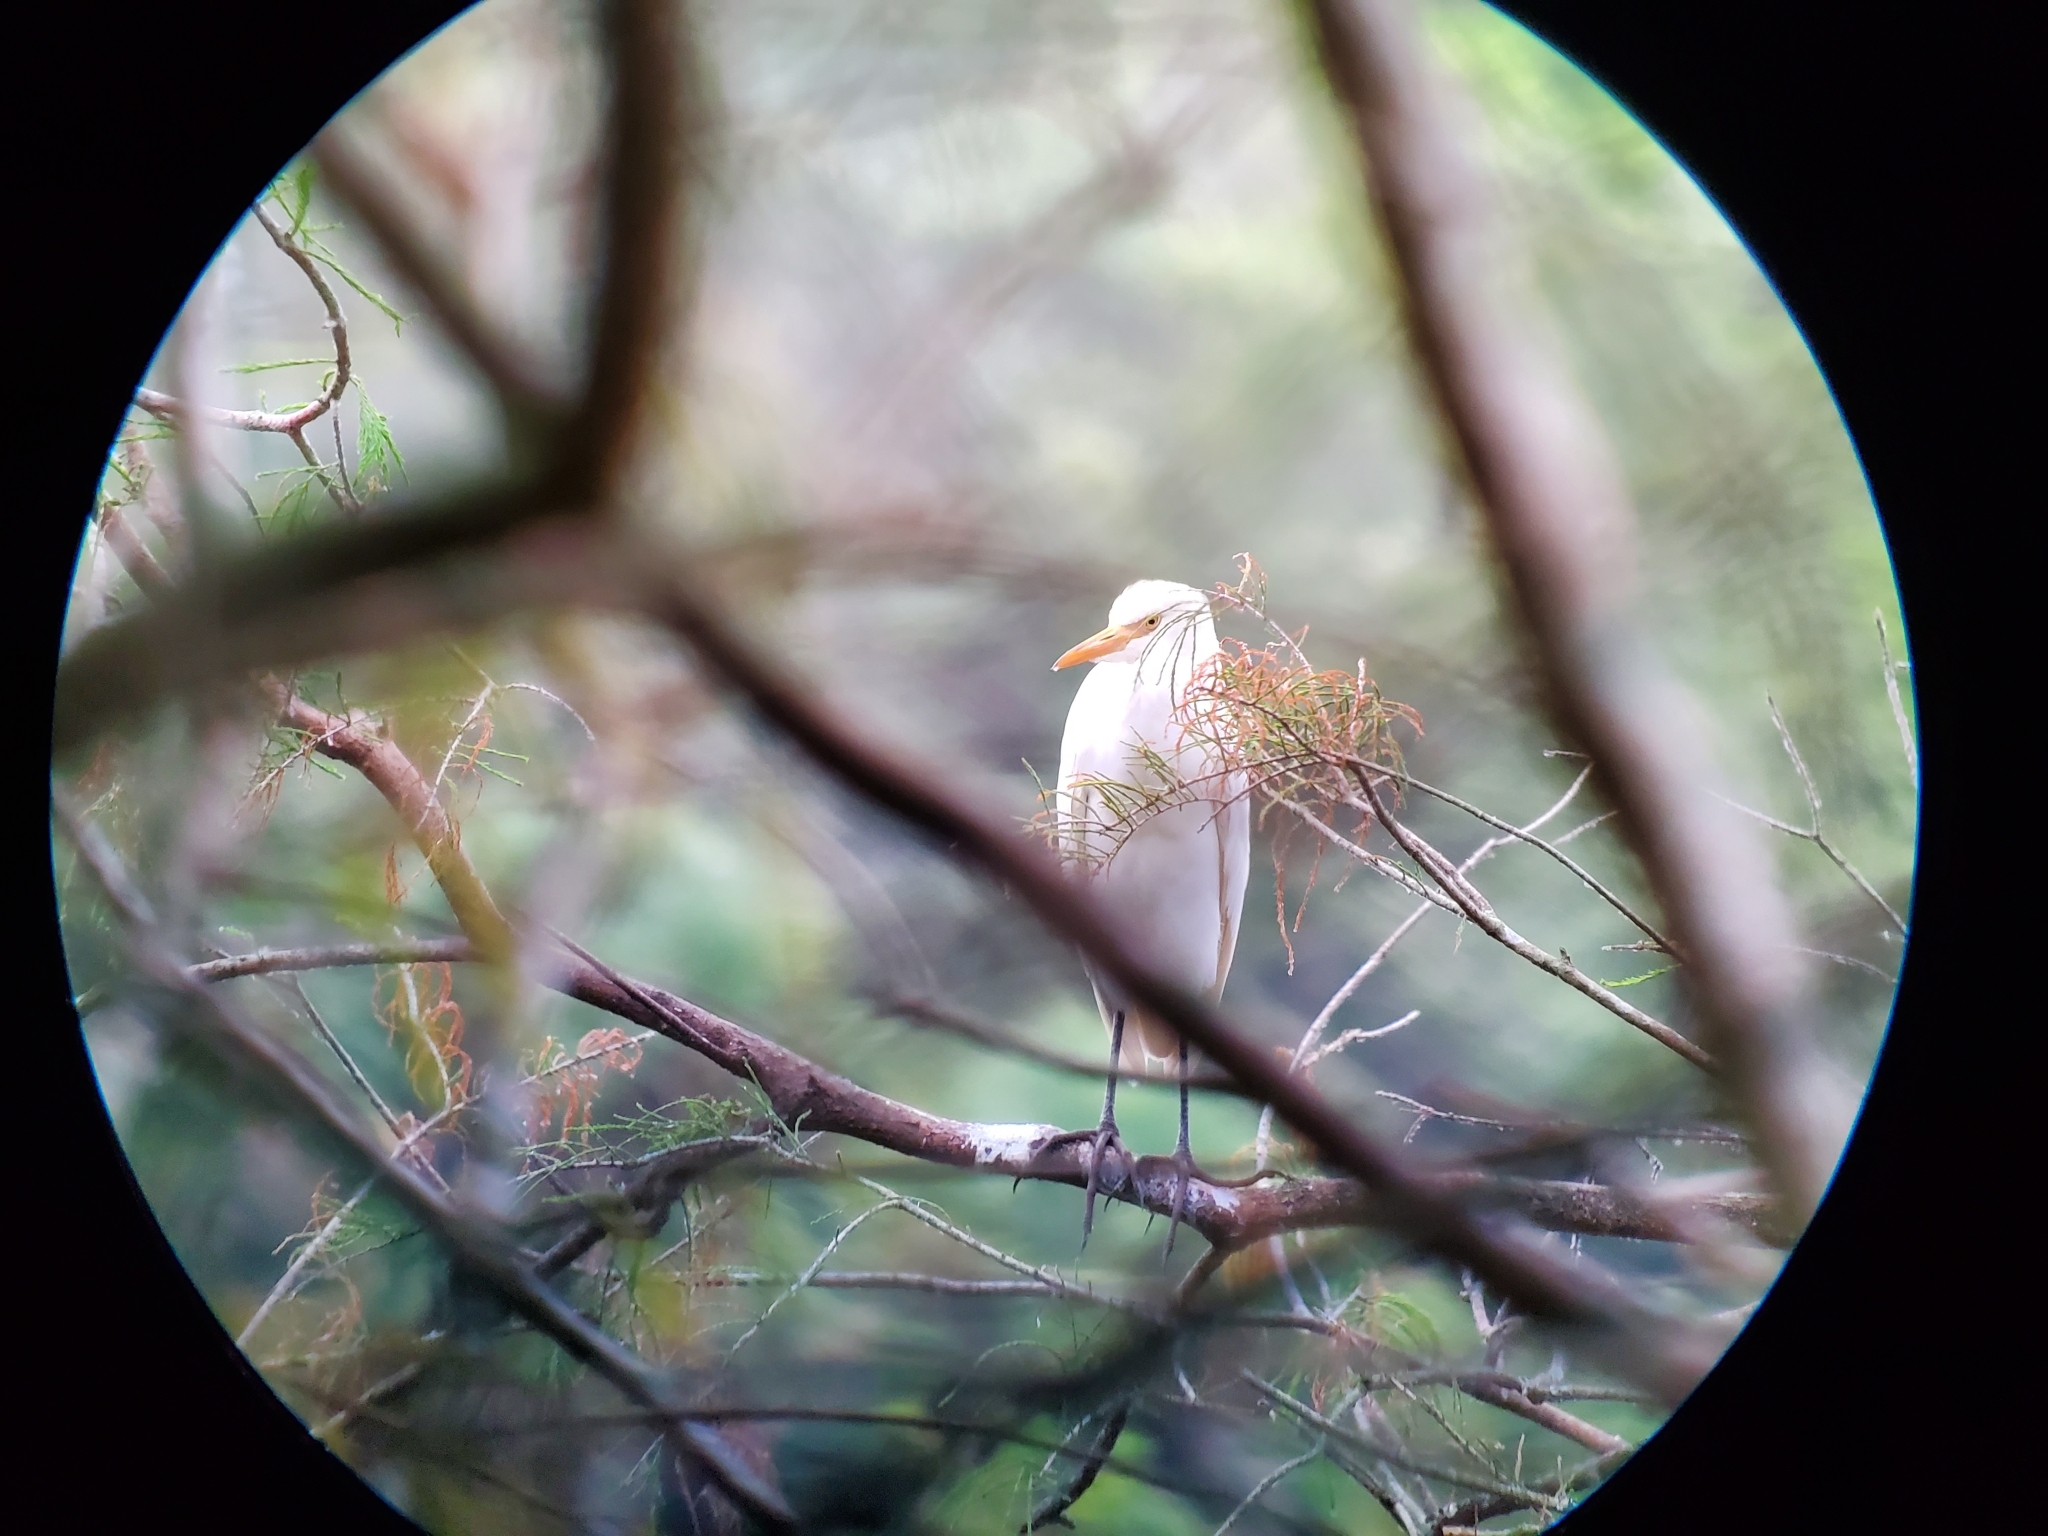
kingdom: Animalia
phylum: Chordata
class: Aves
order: Pelecaniformes
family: Ardeidae
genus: Bubulcus
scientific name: Bubulcus ibis
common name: Cattle egret
